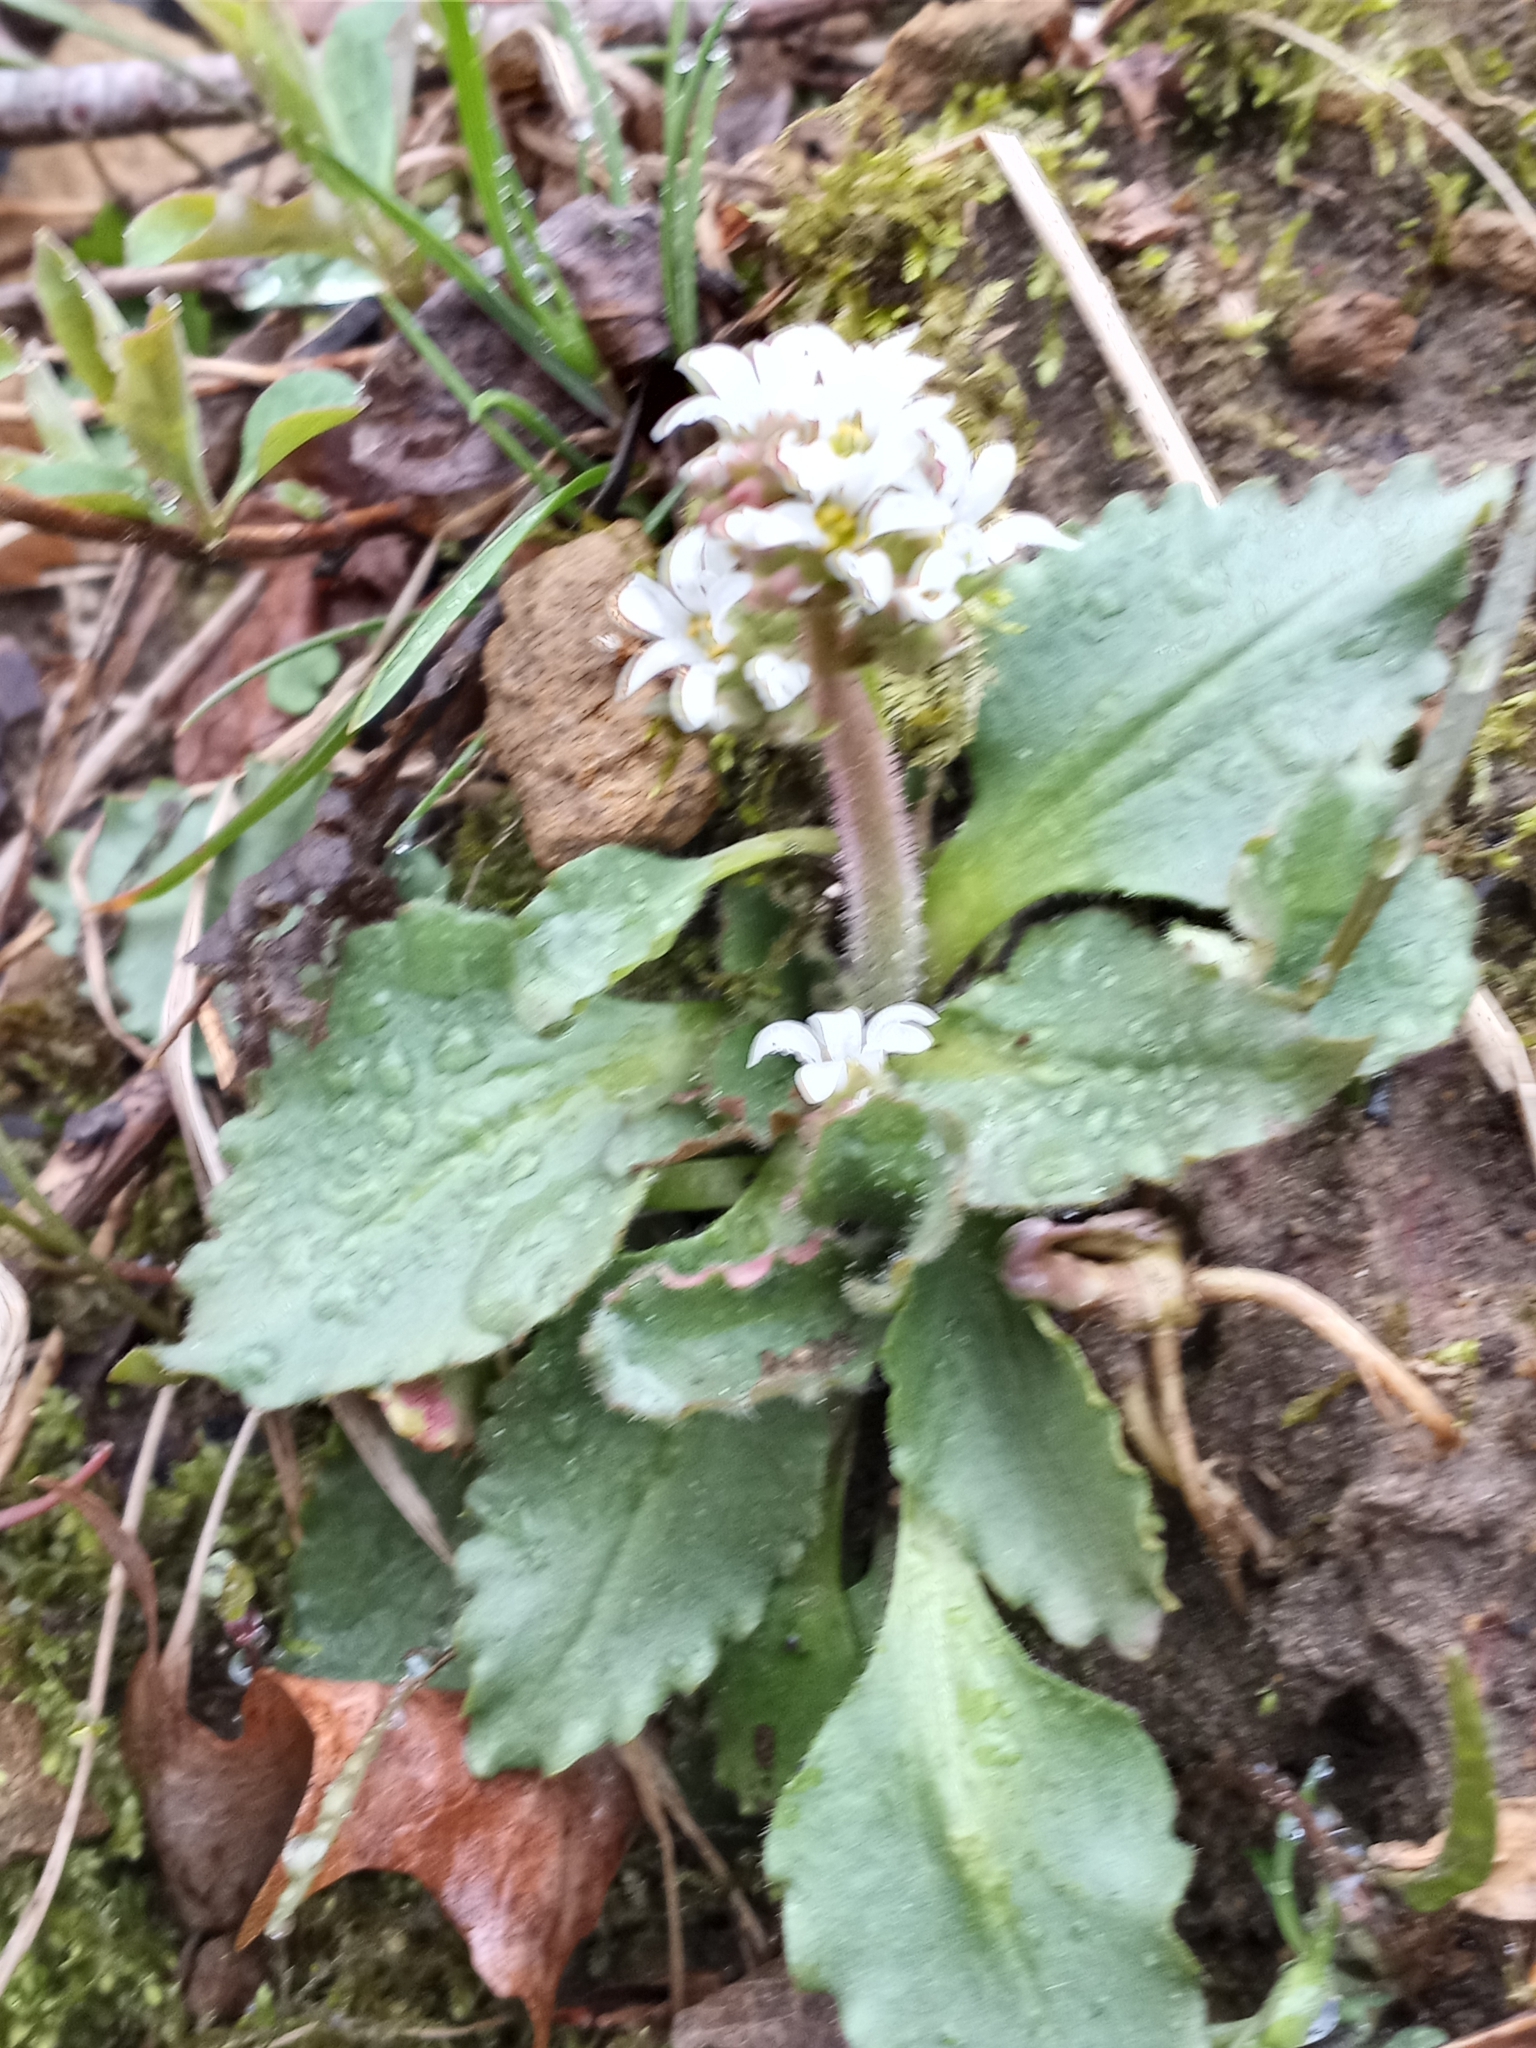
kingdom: Plantae
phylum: Tracheophyta
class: Magnoliopsida
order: Saxifragales
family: Saxifragaceae
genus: Micranthes
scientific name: Micranthes virginiensis
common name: Early saxifrage
